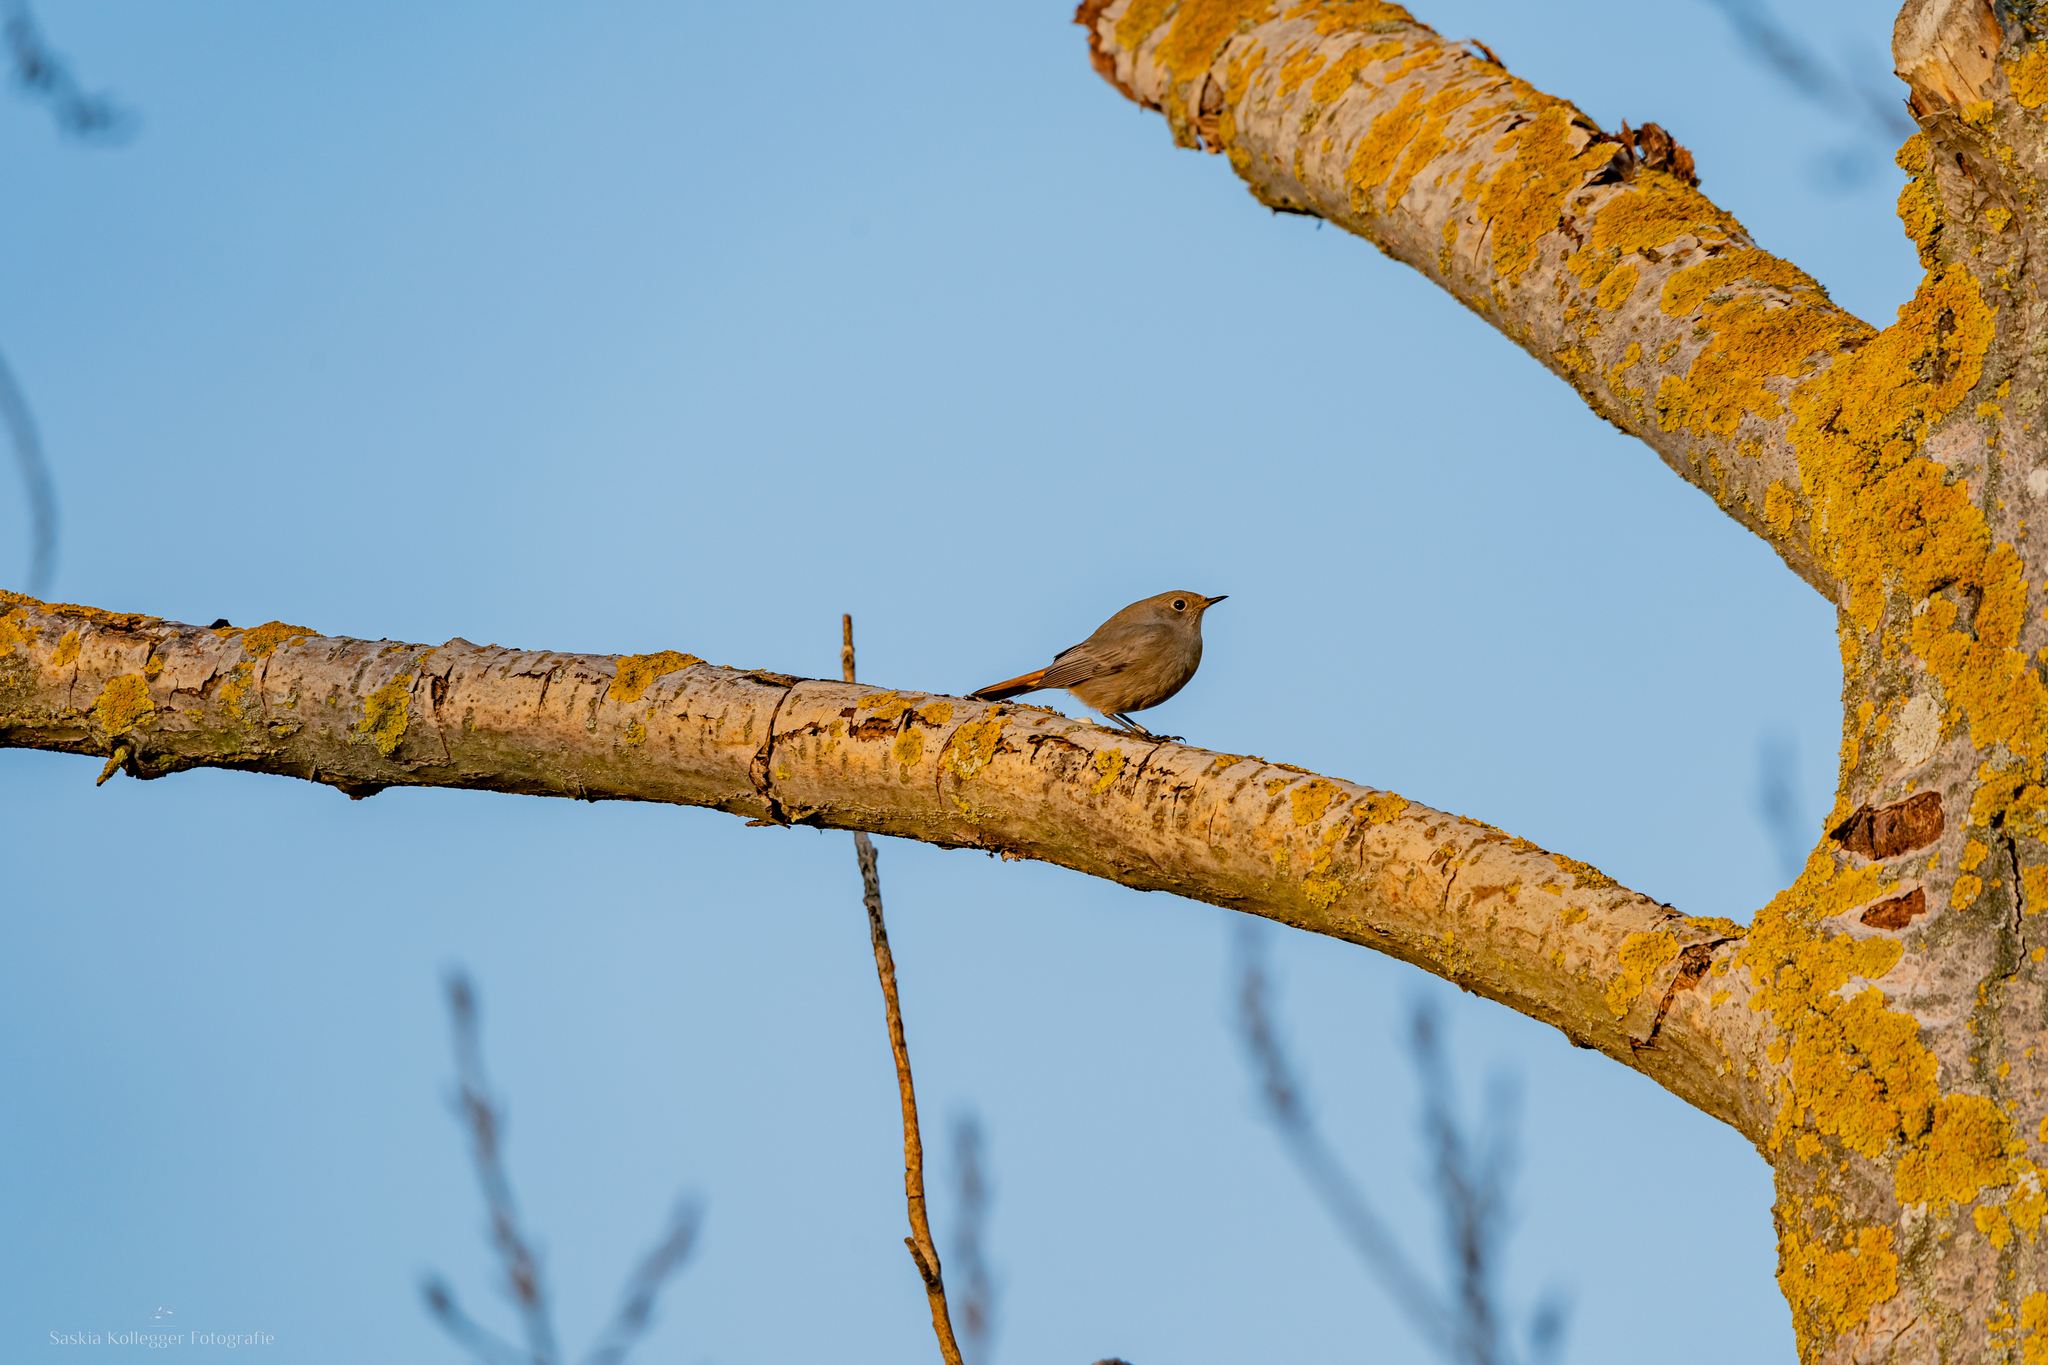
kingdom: Animalia
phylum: Chordata
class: Aves
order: Passeriformes
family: Muscicapidae
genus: Phoenicurus
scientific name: Phoenicurus ochruros
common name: Black redstart
